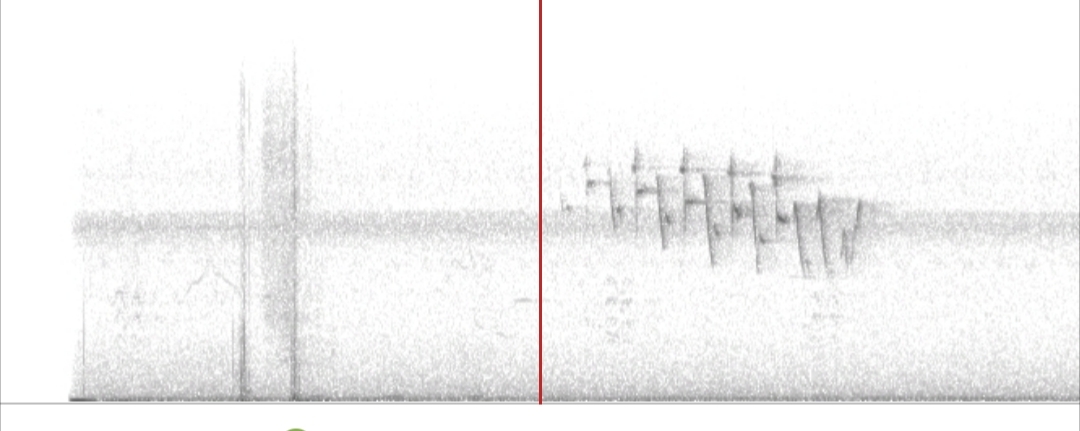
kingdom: Animalia
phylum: Chordata
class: Aves
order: Passeriformes
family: Parulidae
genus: Setophaga
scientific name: Setophaga dominica
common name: Yellow-throated warbler
